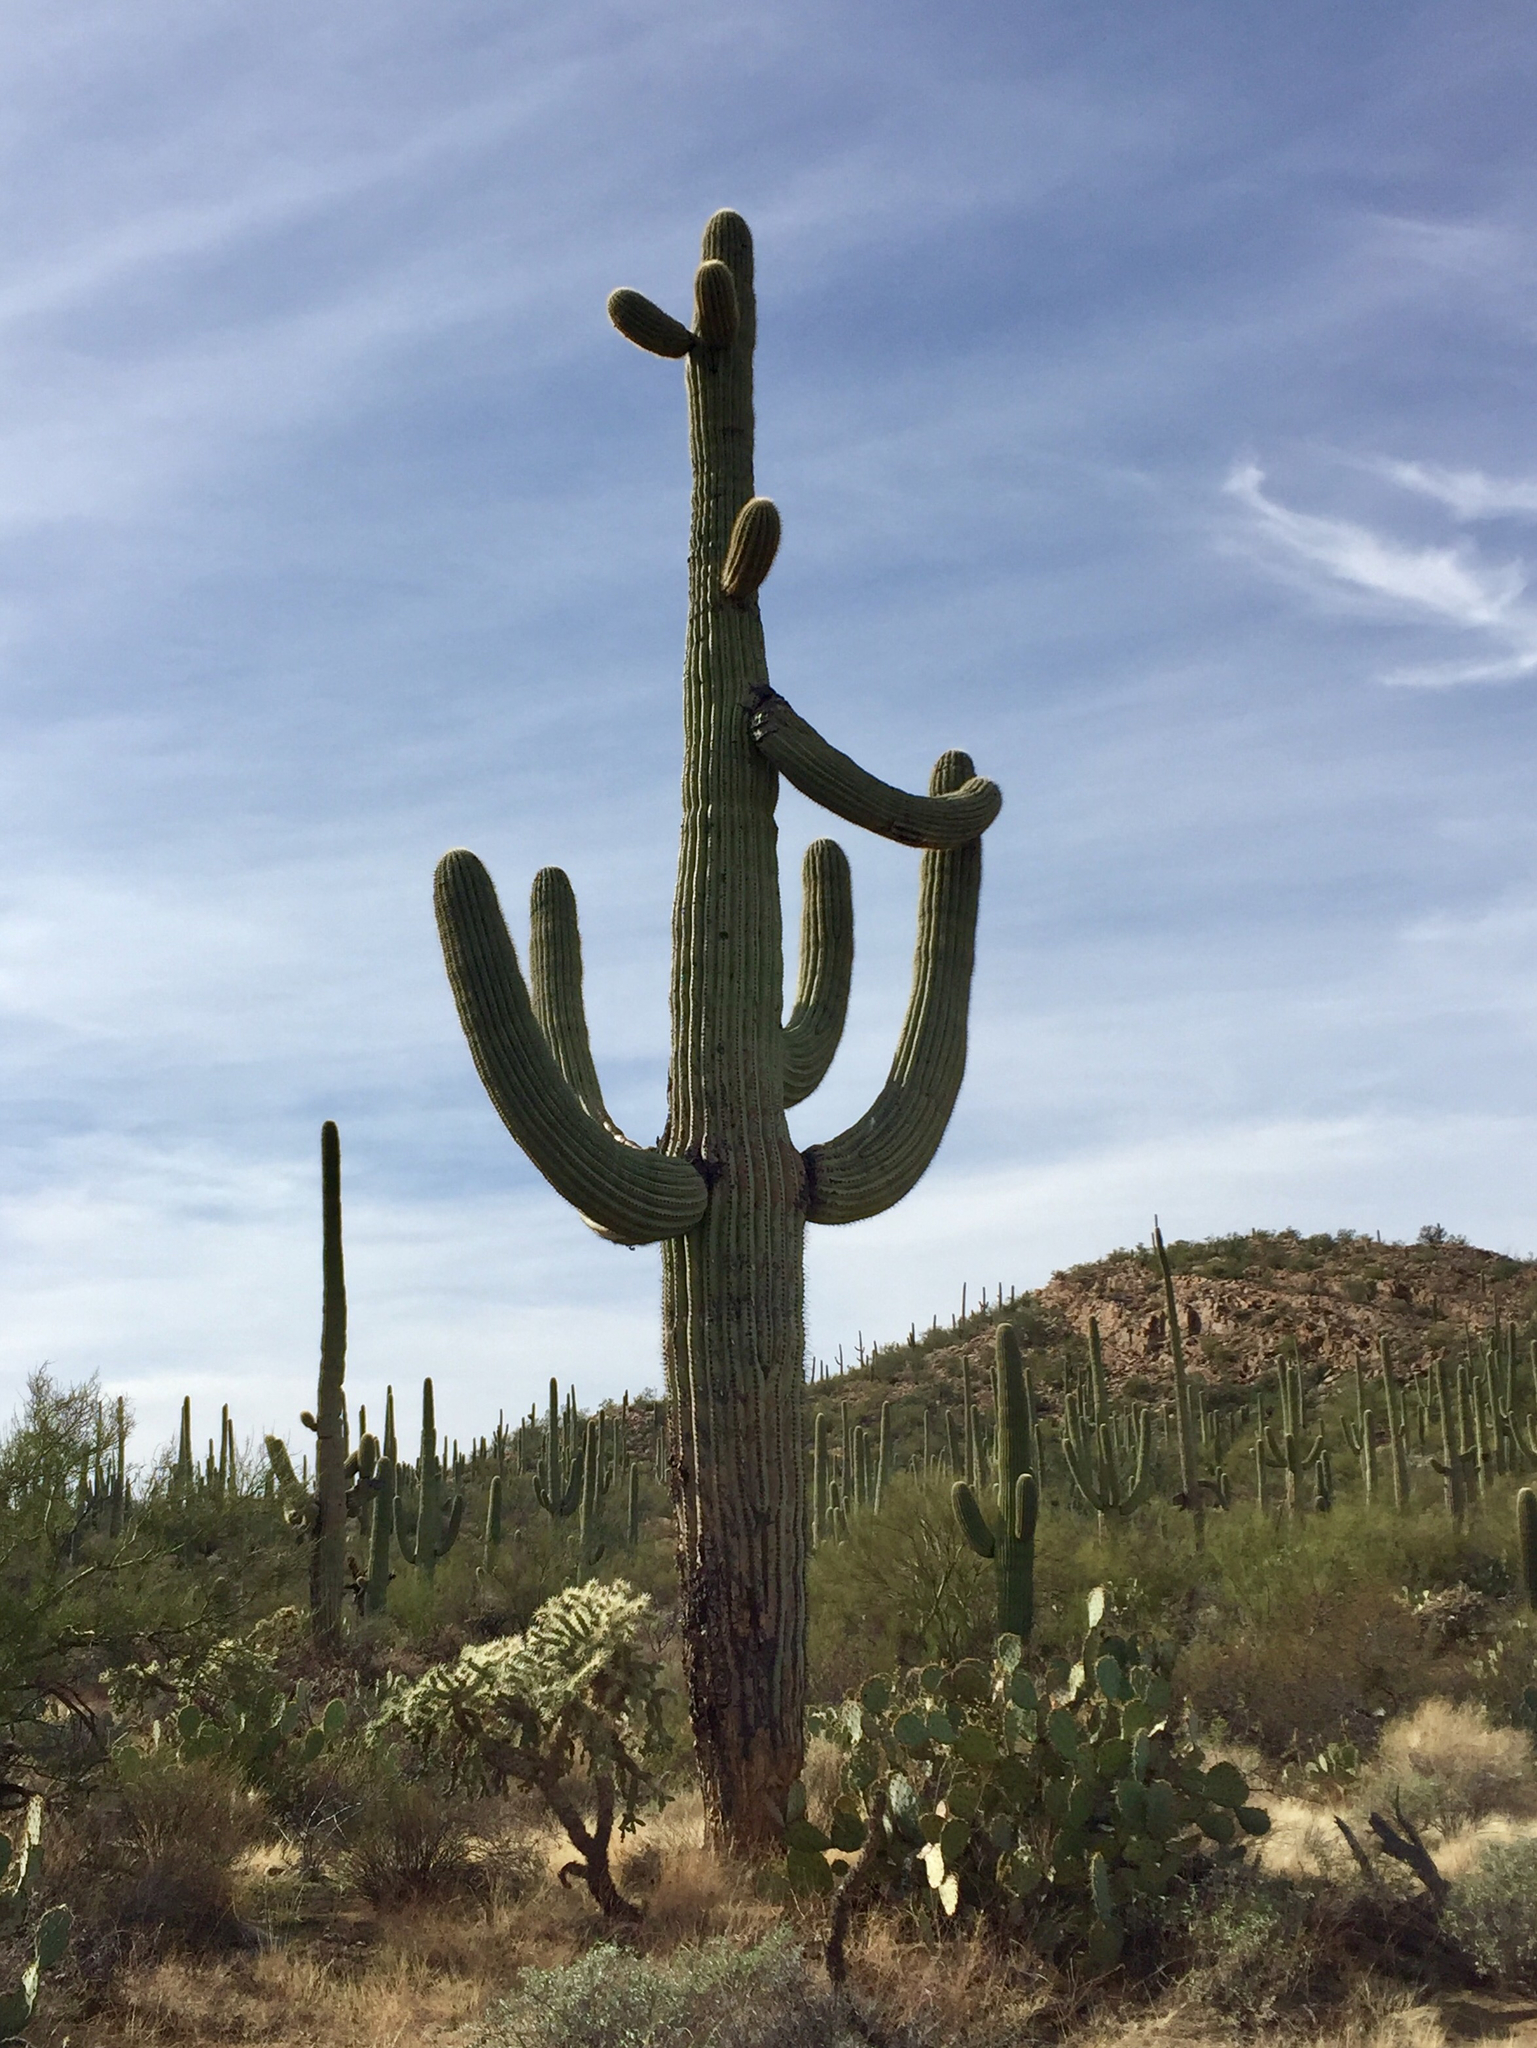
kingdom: Plantae
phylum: Tracheophyta
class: Magnoliopsida
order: Caryophyllales
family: Cactaceae
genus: Carnegiea
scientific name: Carnegiea gigantea
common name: Saguaro
